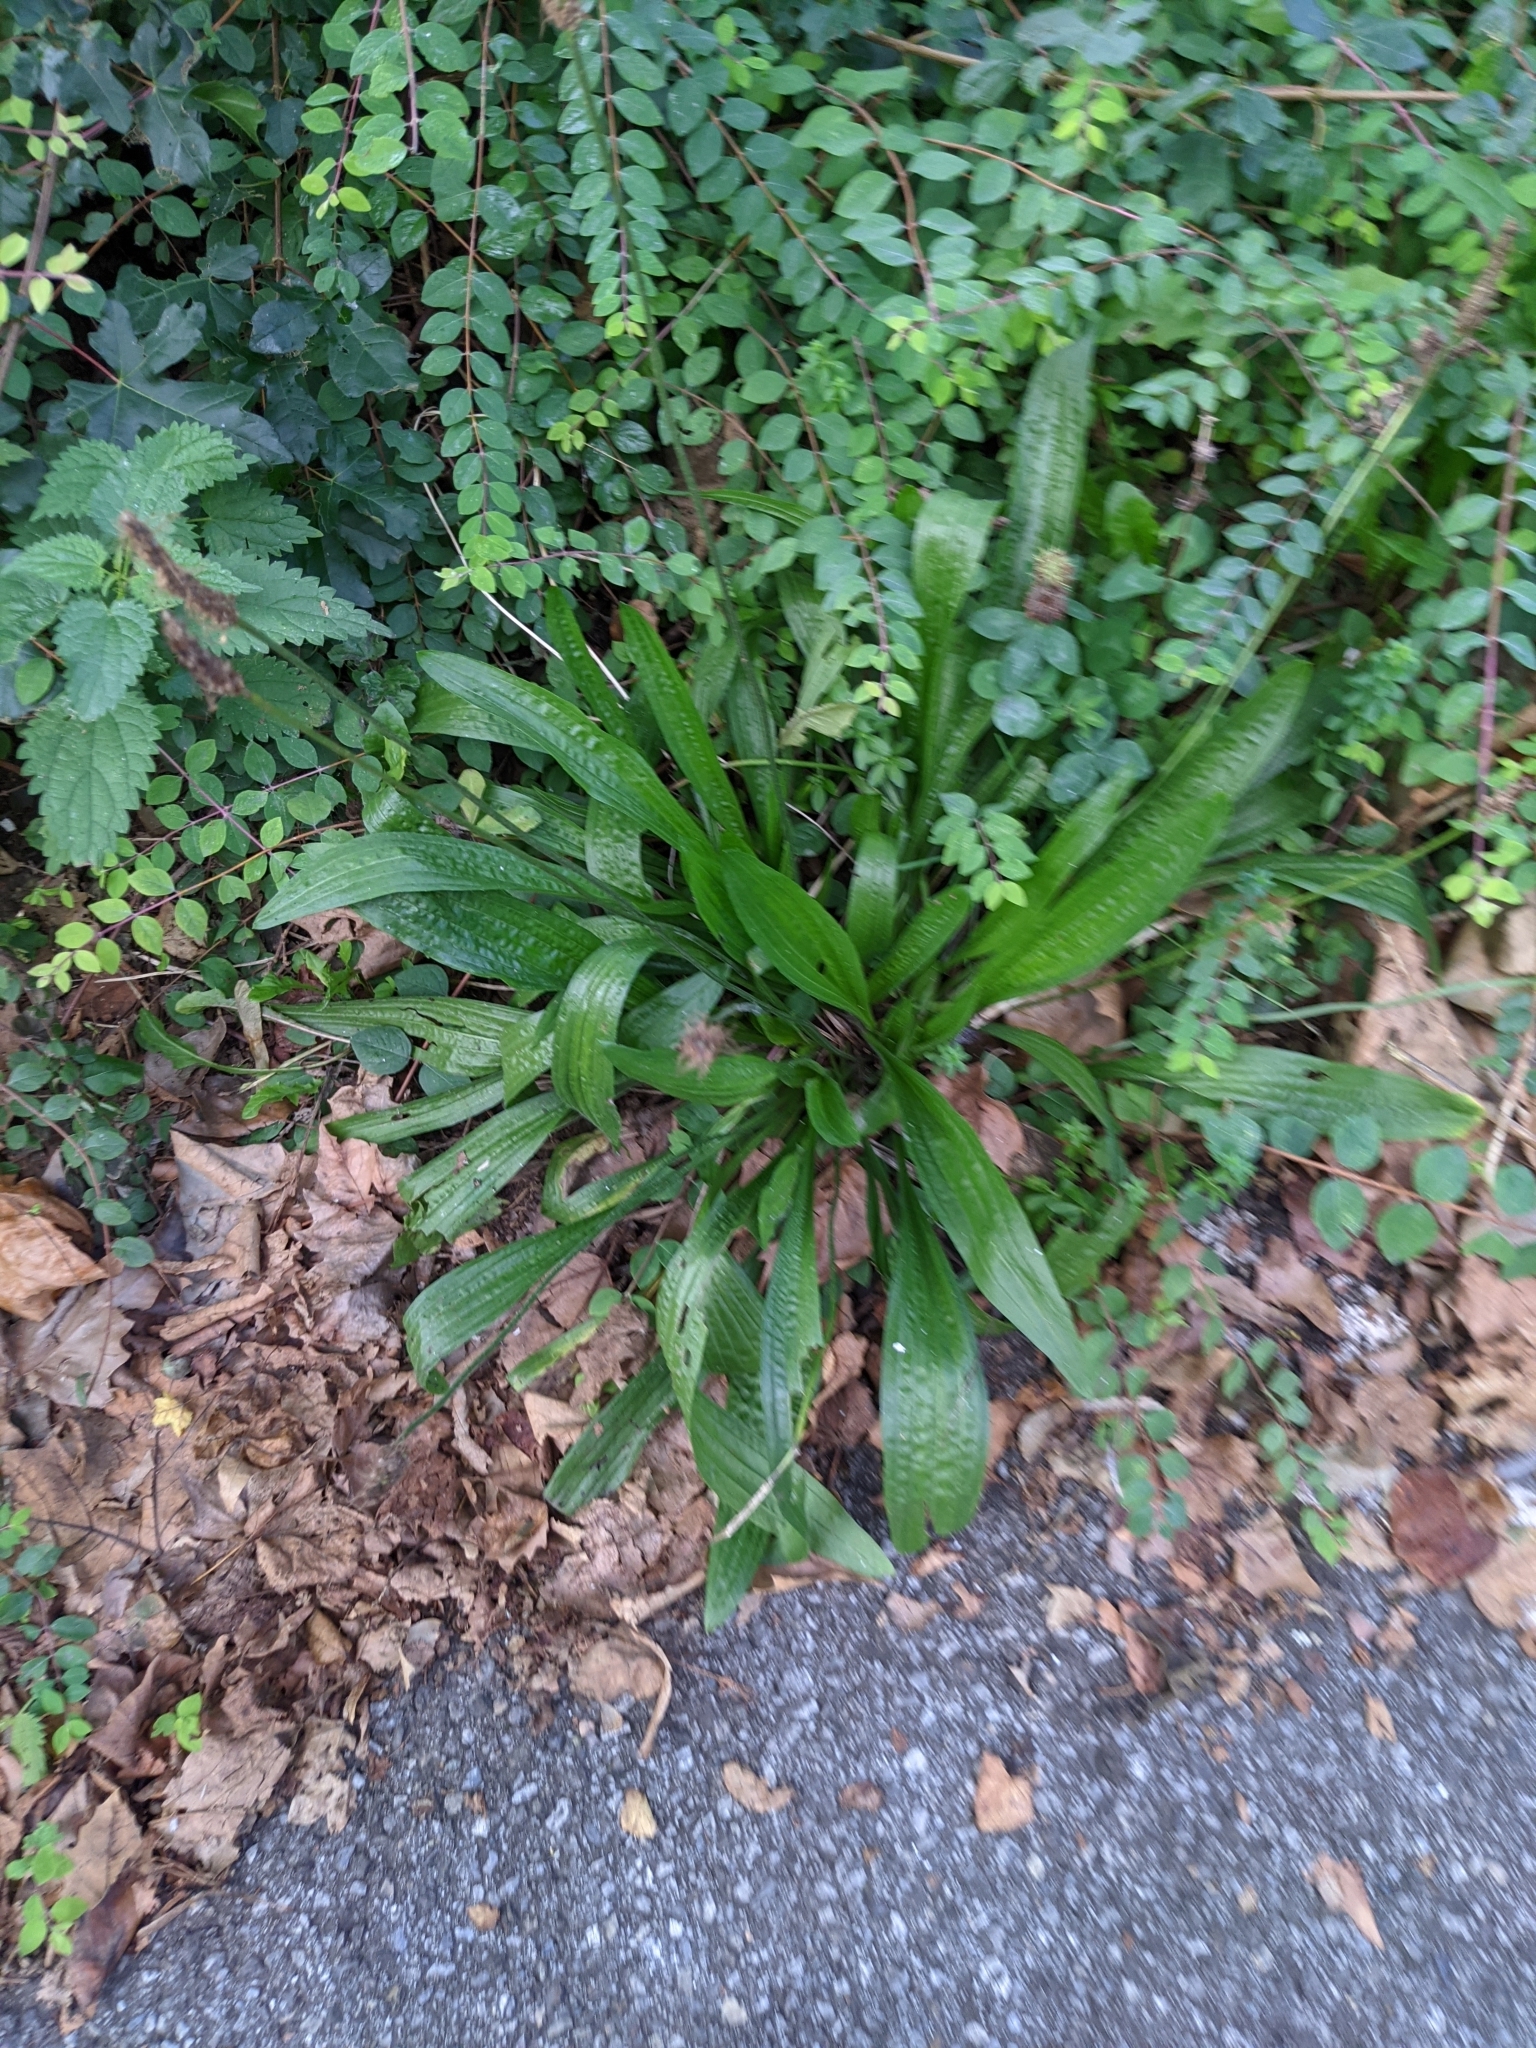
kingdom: Plantae
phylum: Tracheophyta
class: Magnoliopsida
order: Lamiales
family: Plantaginaceae
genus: Plantago
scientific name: Plantago lanceolata
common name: Ribwort plantain
